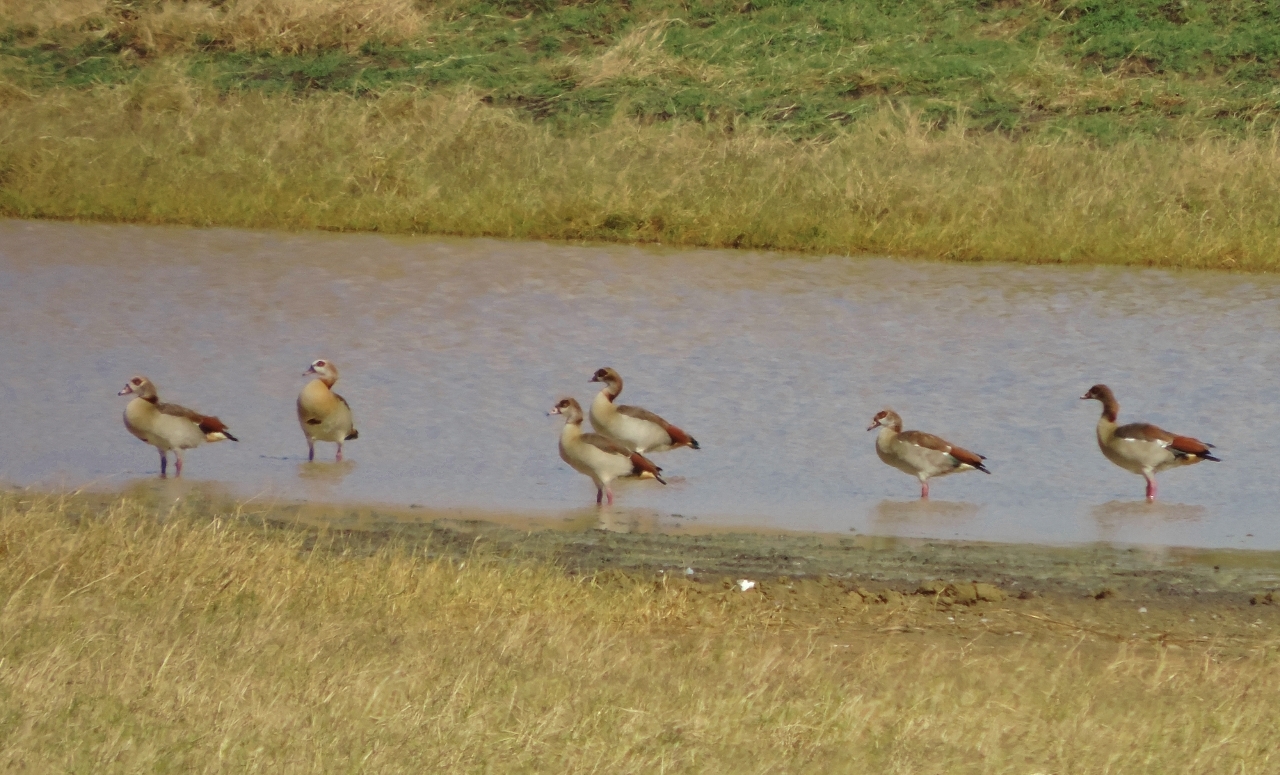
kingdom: Animalia
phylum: Chordata
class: Aves
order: Anseriformes
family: Anatidae
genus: Alopochen
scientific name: Alopochen aegyptiaca
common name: Egyptian goose
